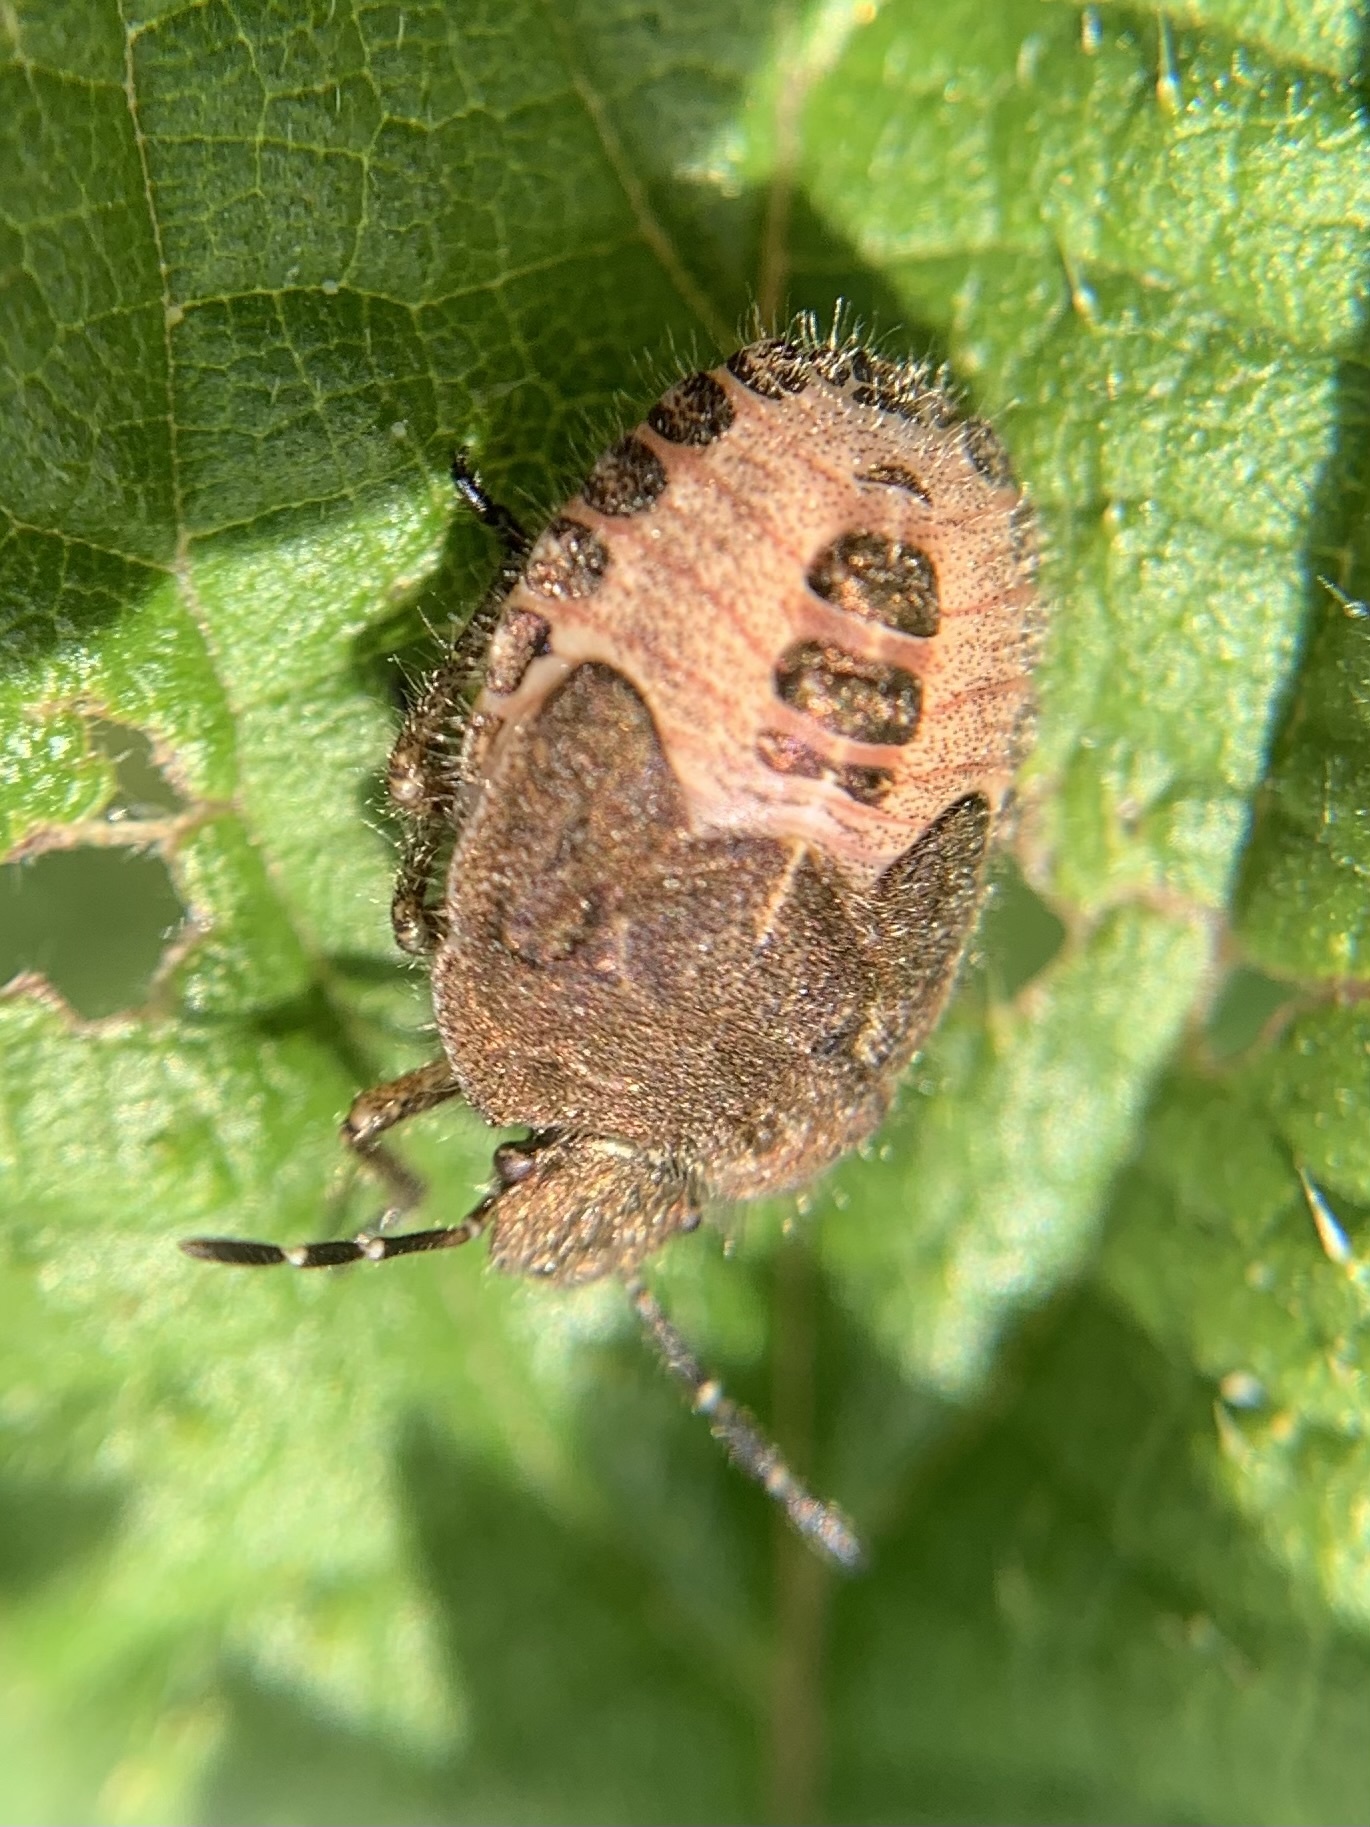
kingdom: Animalia
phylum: Arthropoda
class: Insecta
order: Hemiptera
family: Pentatomidae
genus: Dolycoris
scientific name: Dolycoris baccarum
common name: Sloe bug
